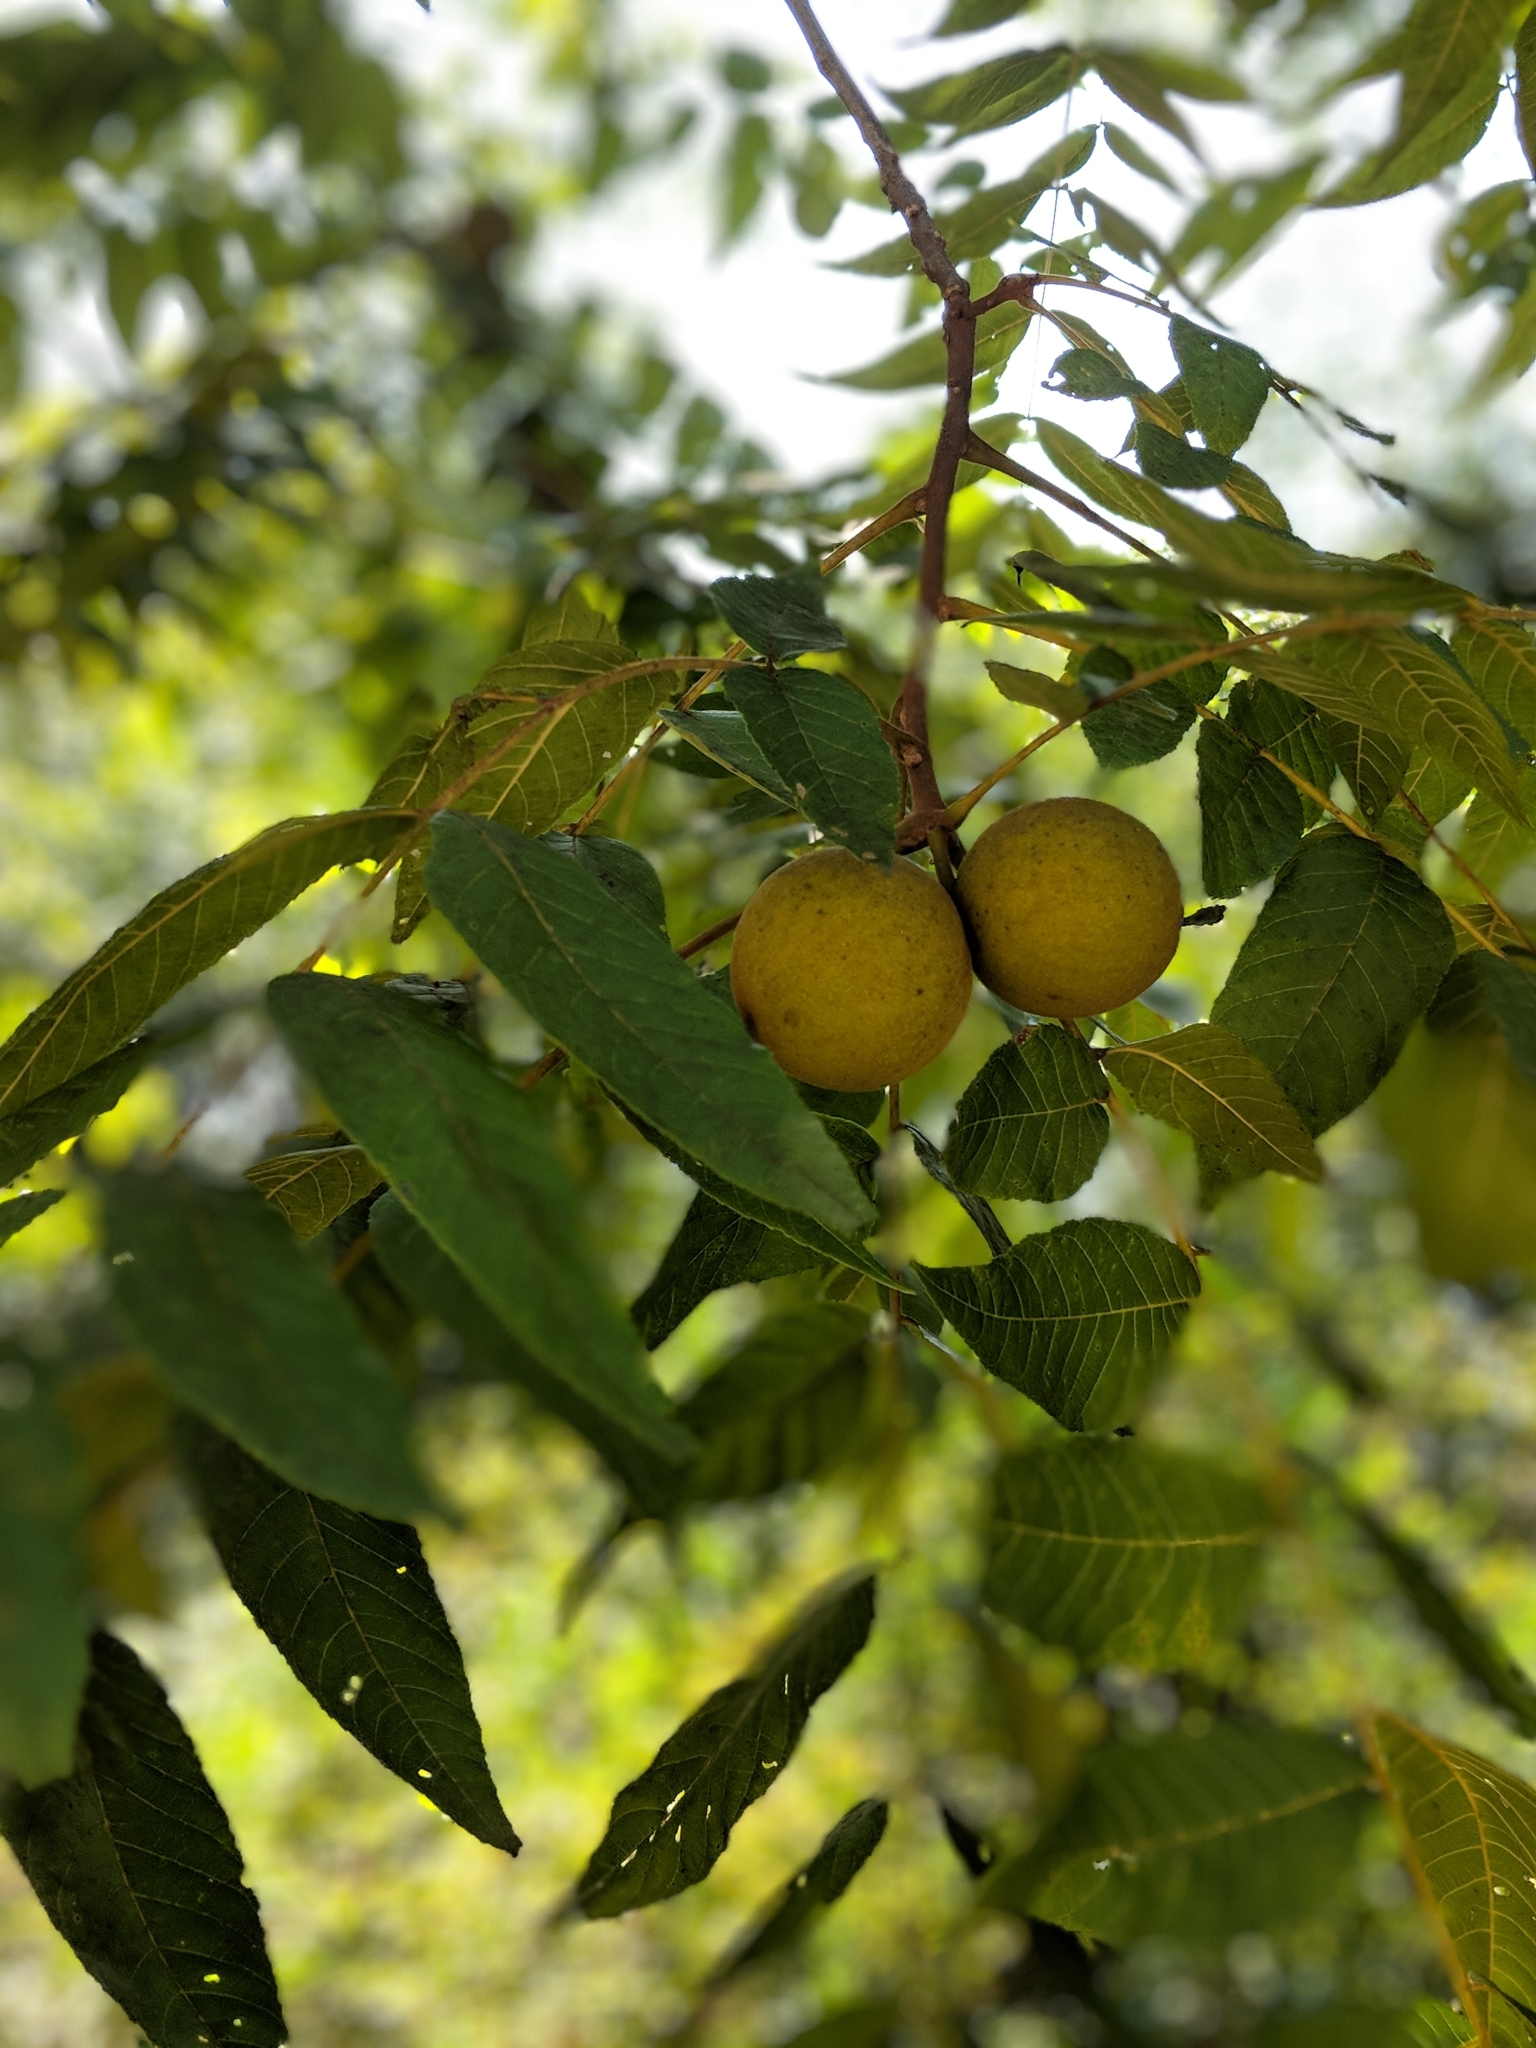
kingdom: Plantae
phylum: Tracheophyta
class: Magnoliopsida
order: Fagales
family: Juglandaceae
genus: Juglans
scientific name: Juglans nigra
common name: Black walnut
